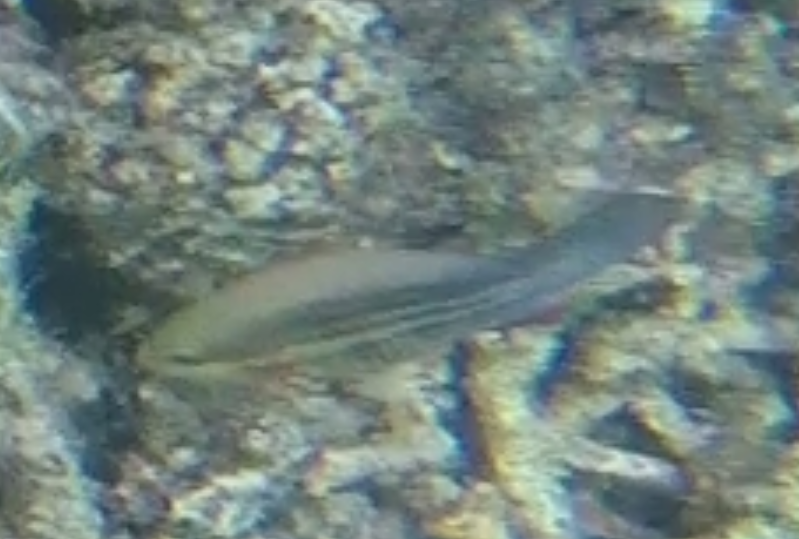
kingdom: Animalia
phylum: Chordata
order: Perciformes
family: Scaridae
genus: Scarus
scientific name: Scarus frenatus
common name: Bridled parrotfish
